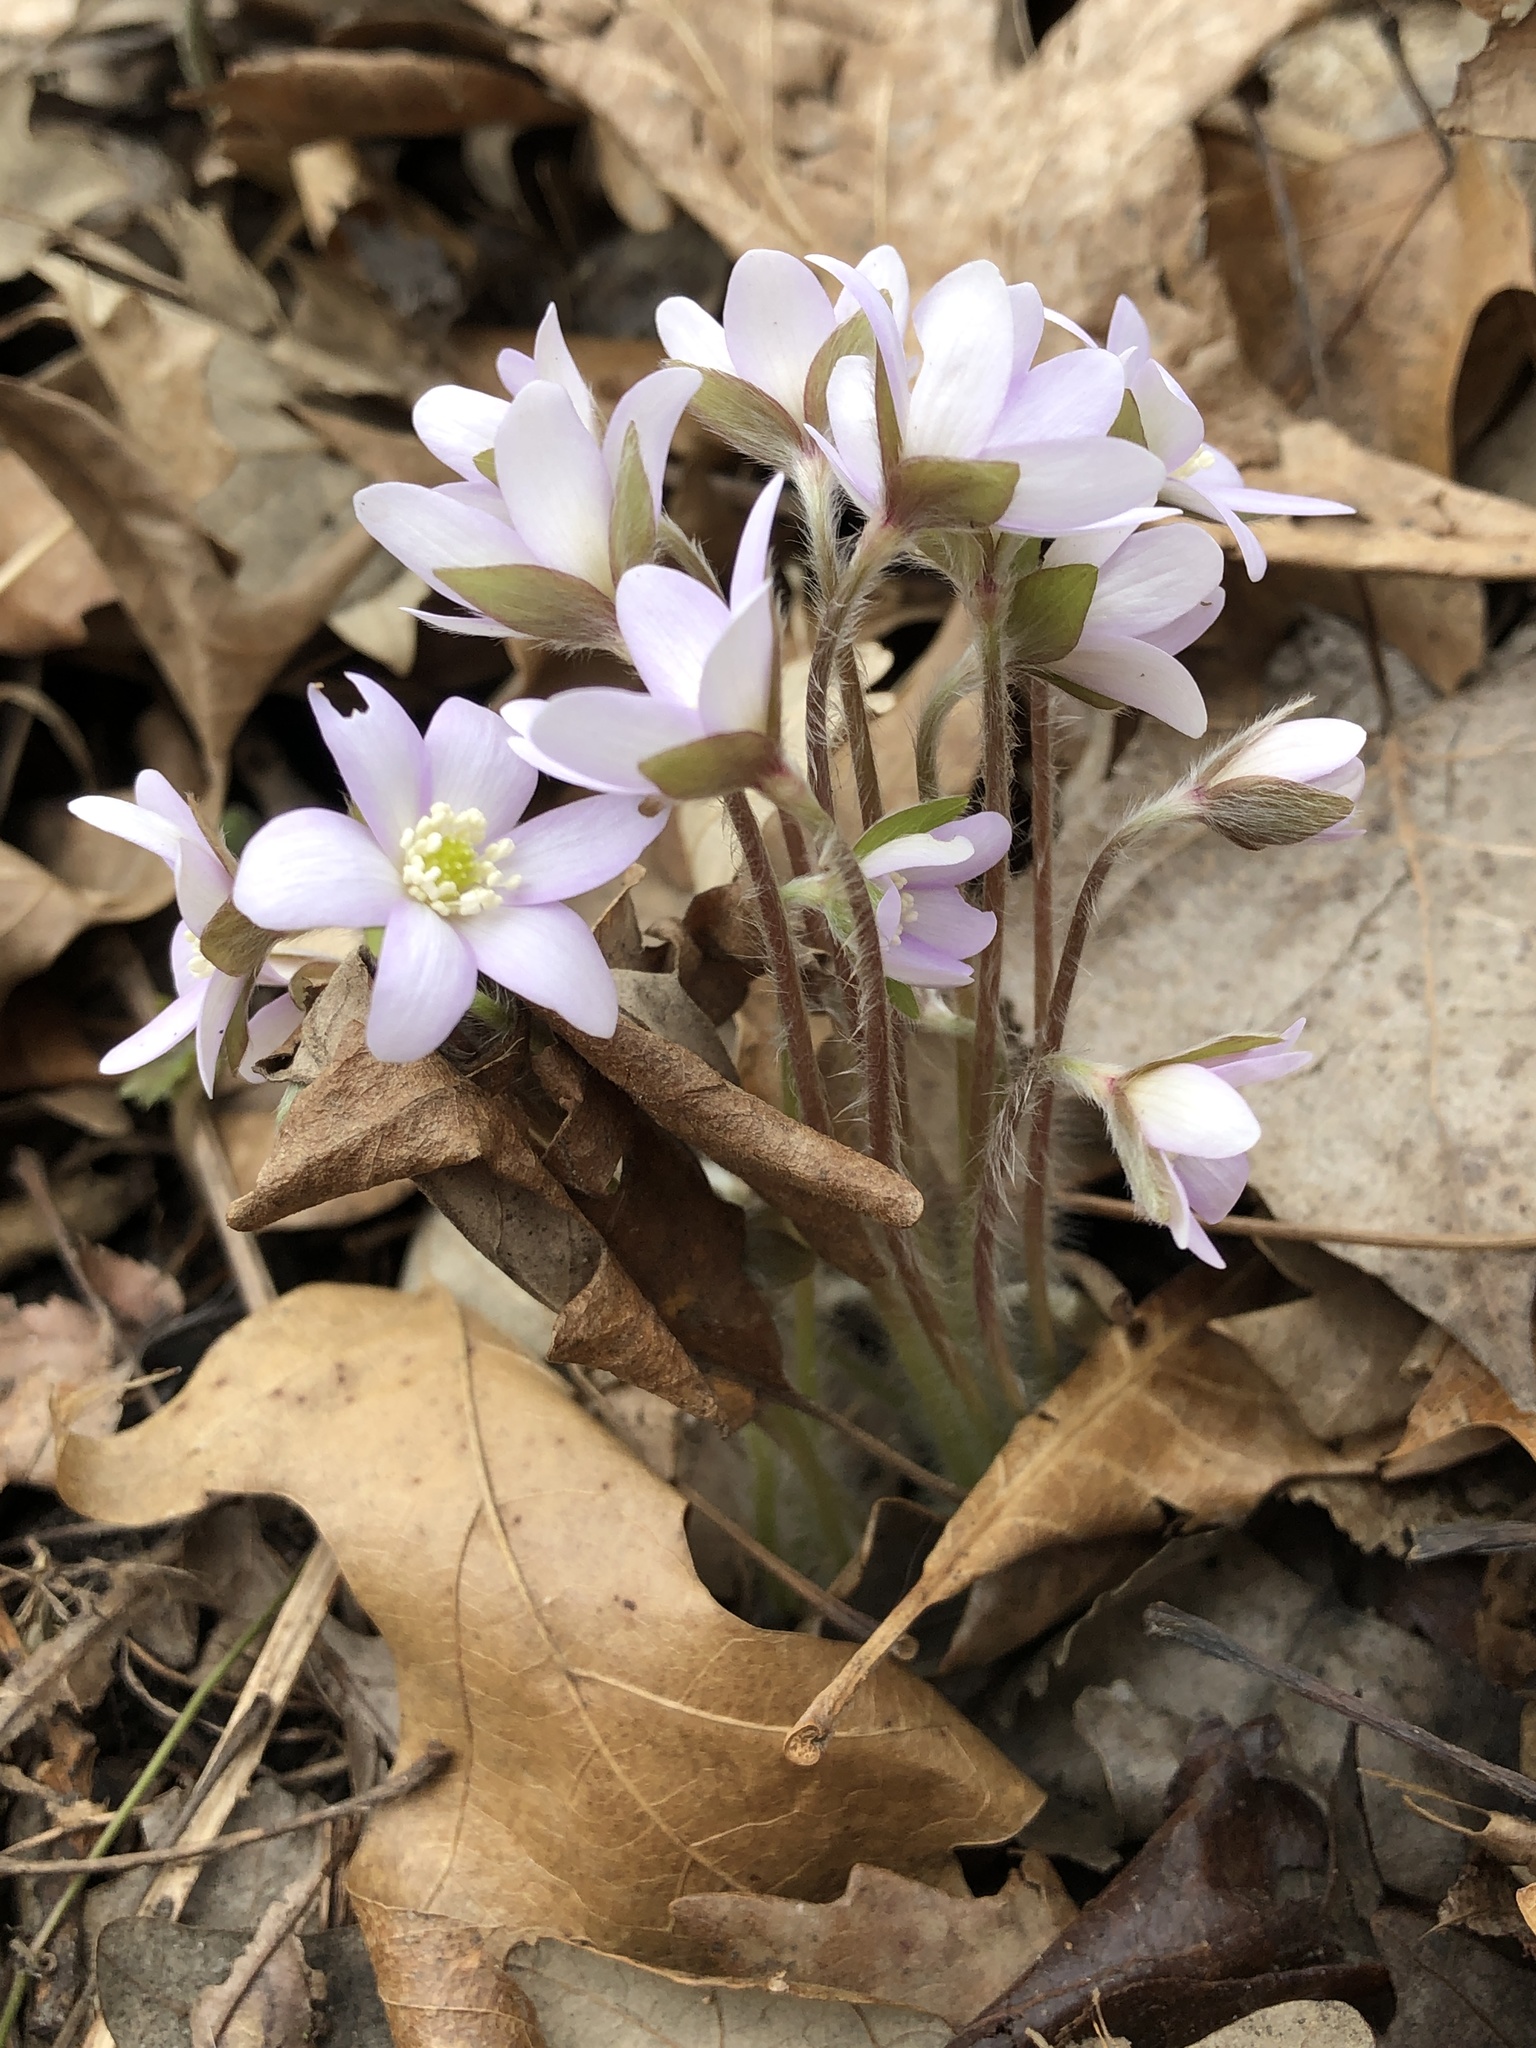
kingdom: Plantae
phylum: Tracheophyta
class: Magnoliopsida
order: Ranunculales
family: Ranunculaceae
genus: Hepatica
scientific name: Hepatica acutiloba
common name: Sharp-lobed hepatica
